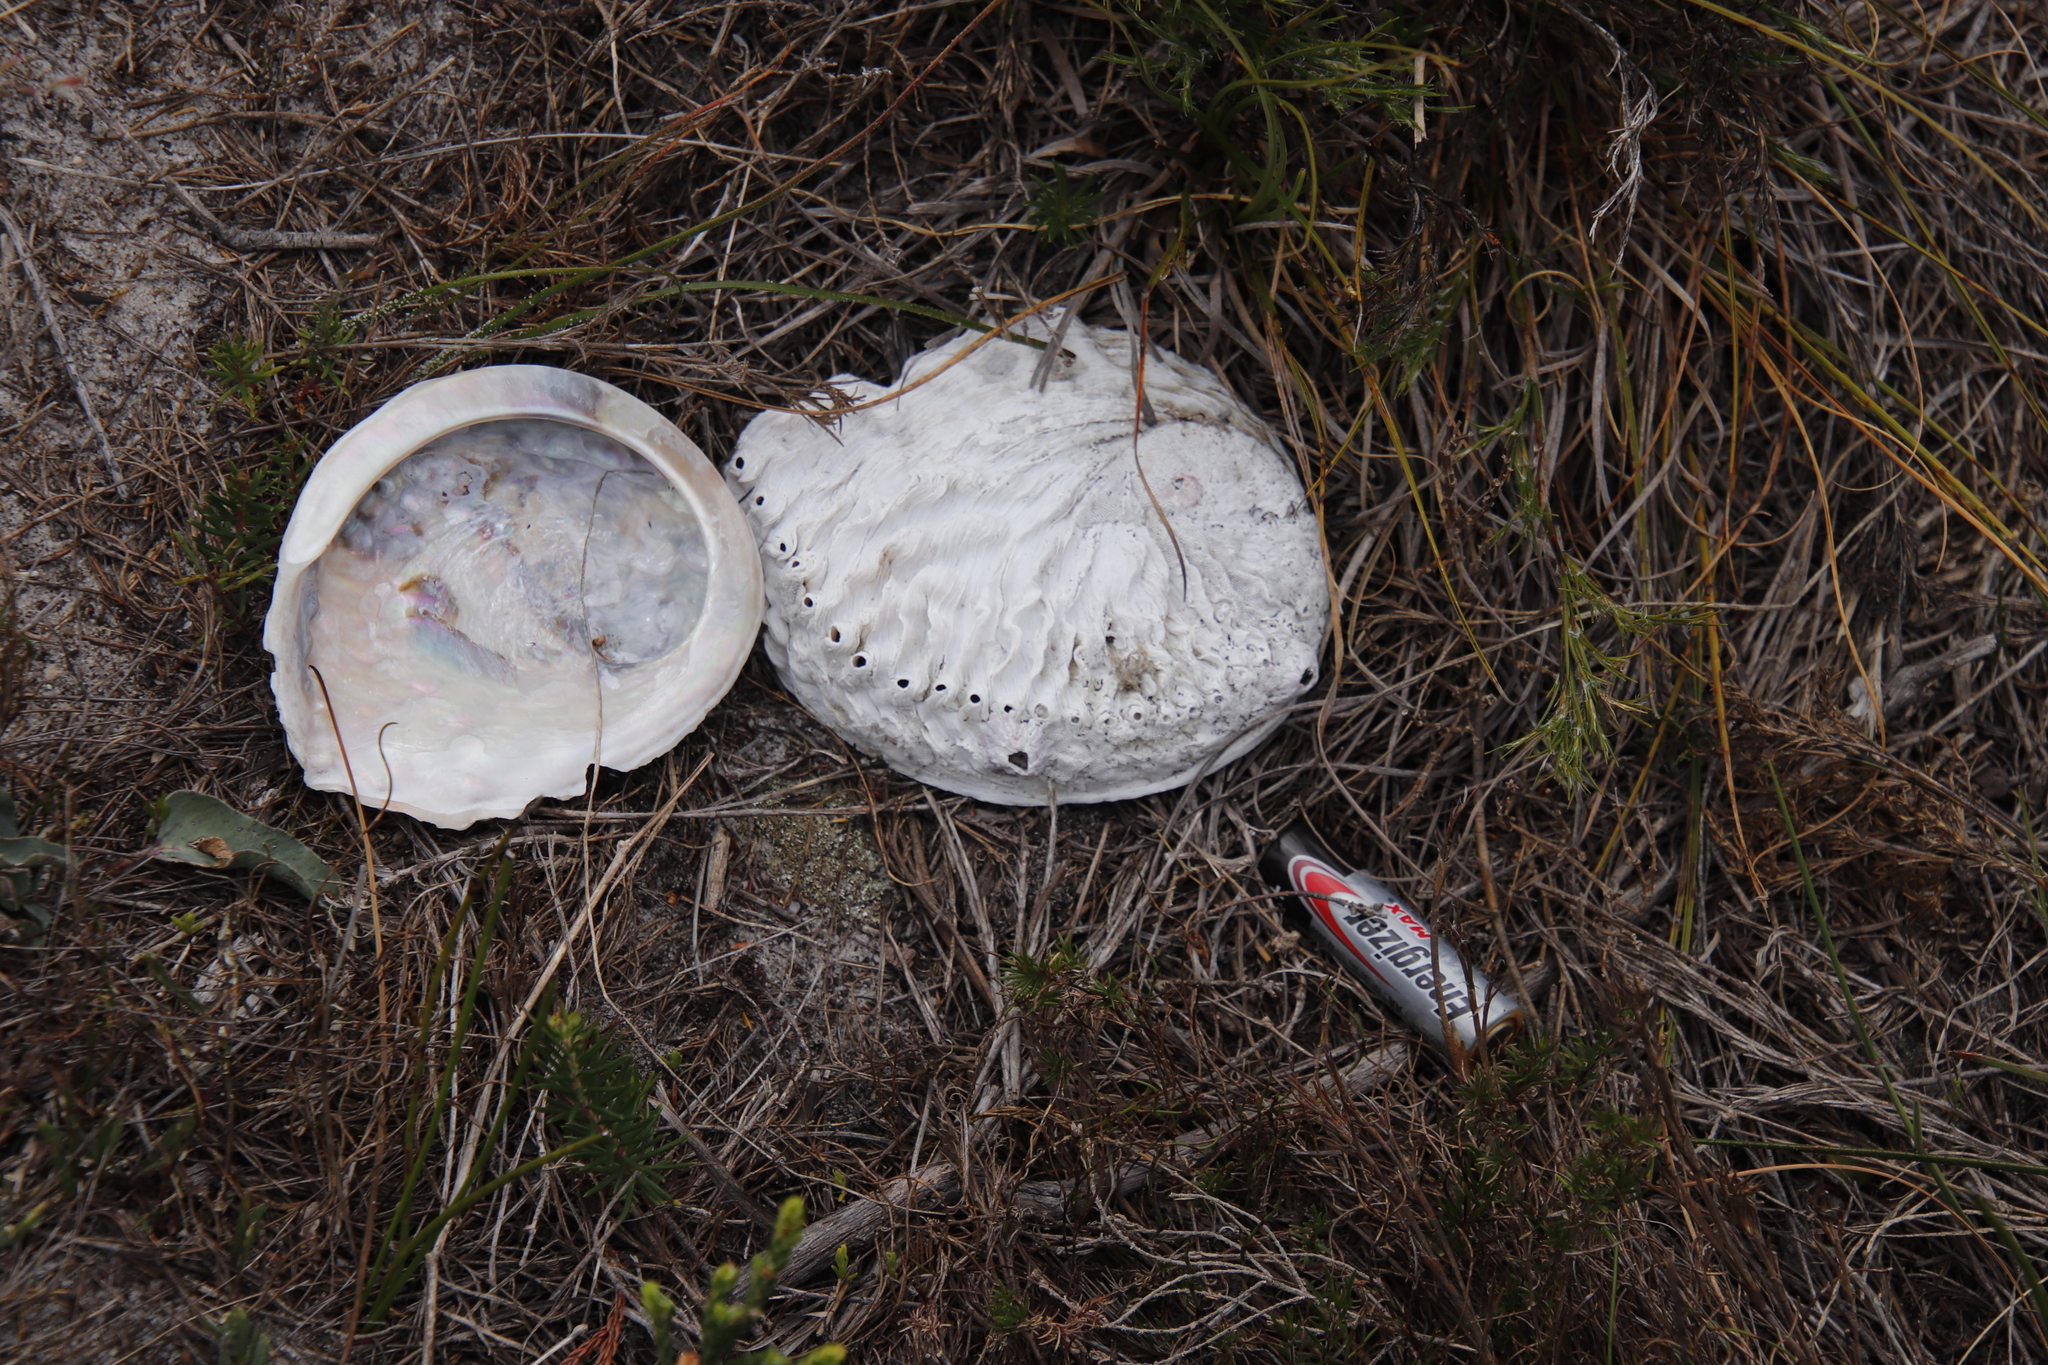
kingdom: Animalia
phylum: Mollusca
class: Gastropoda
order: Lepetellida
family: Haliotidae
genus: Haliotis
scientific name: Haliotis midae
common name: Perlemoen
